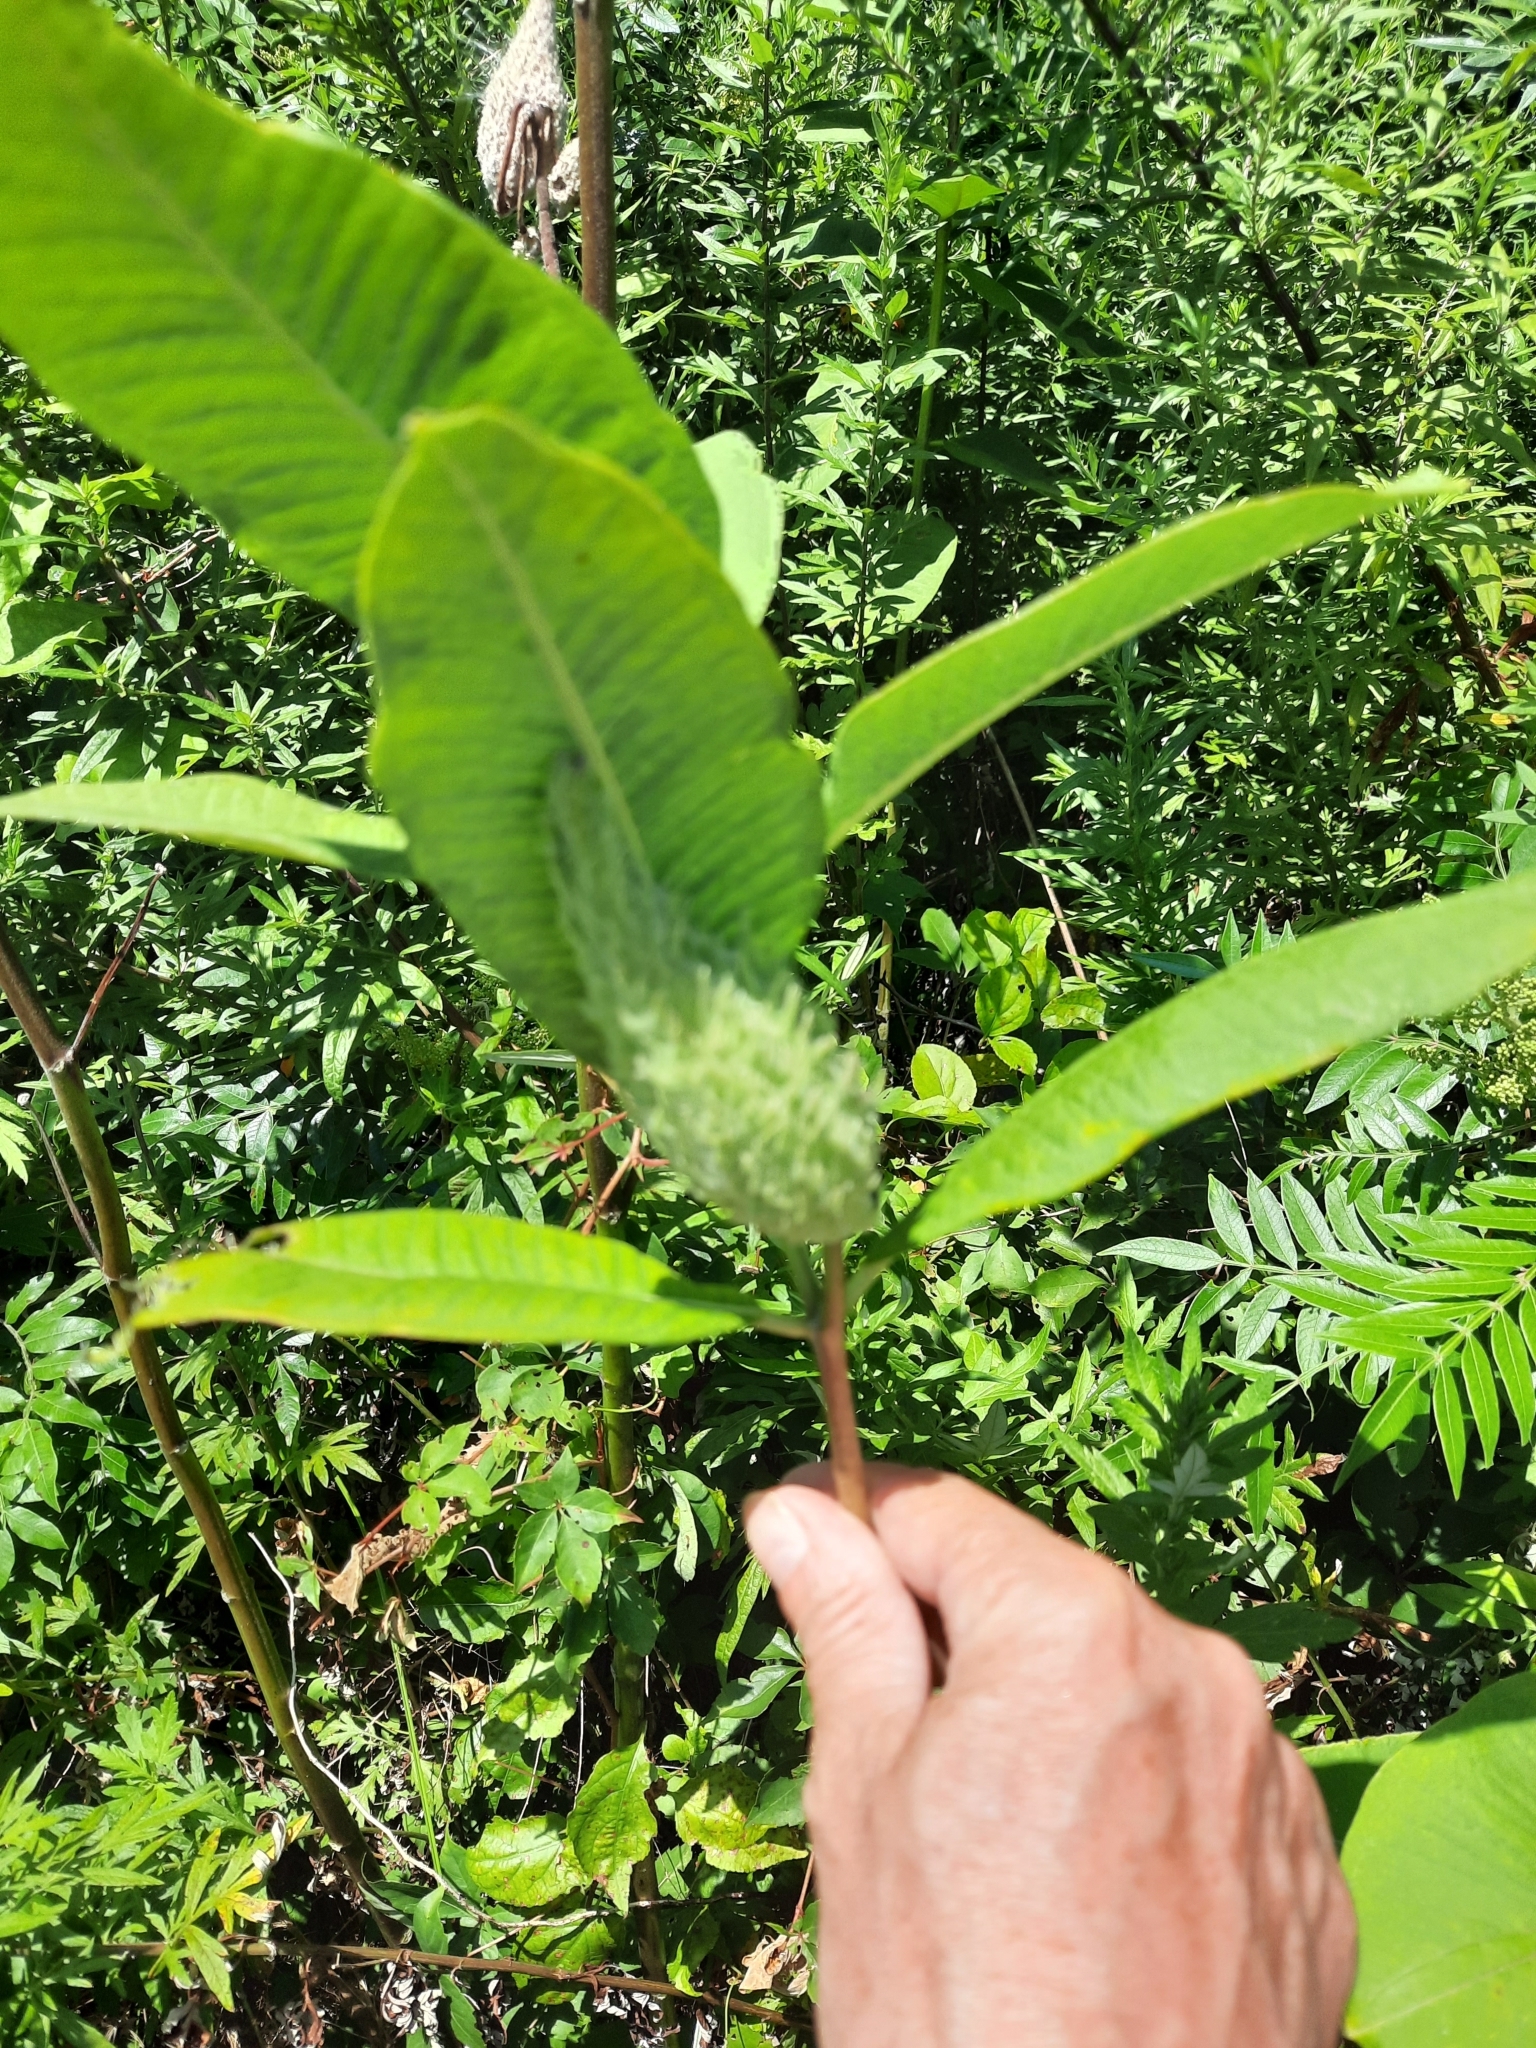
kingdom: Plantae
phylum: Tracheophyta
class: Magnoliopsida
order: Gentianales
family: Apocynaceae
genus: Asclepias
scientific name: Asclepias syriaca
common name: Common milkweed
